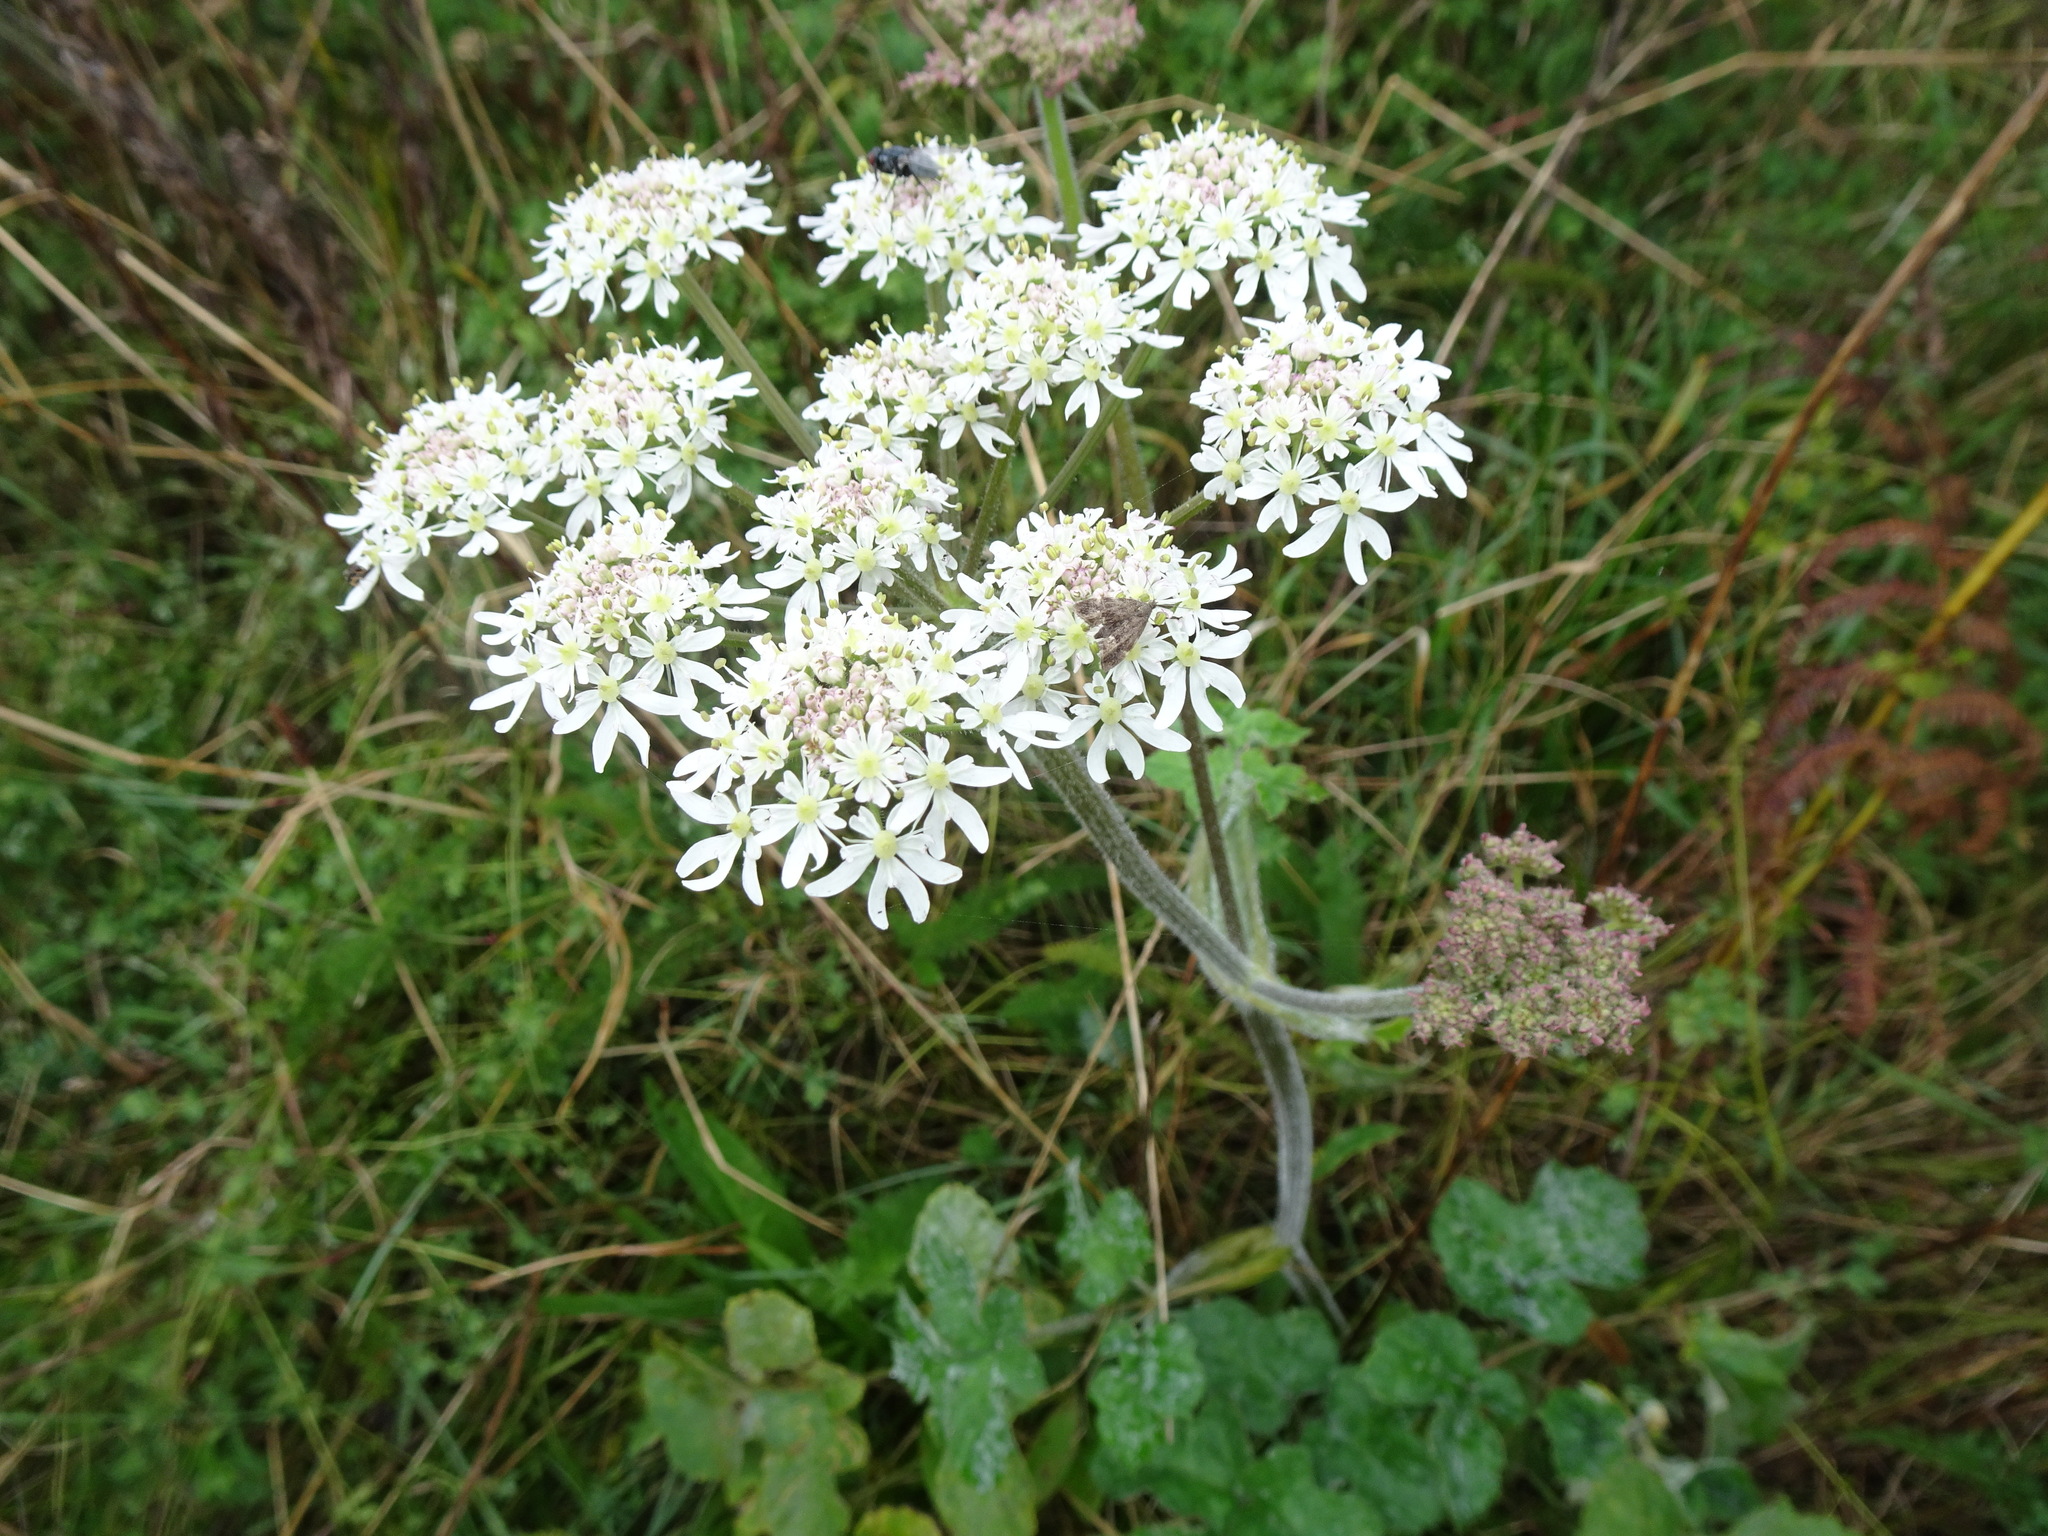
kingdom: Plantae
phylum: Tracheophyta
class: Magnoliopsida
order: Apiales
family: Apiaceae
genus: Heracleum
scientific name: Heracleum sphondylium
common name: Hogweed
